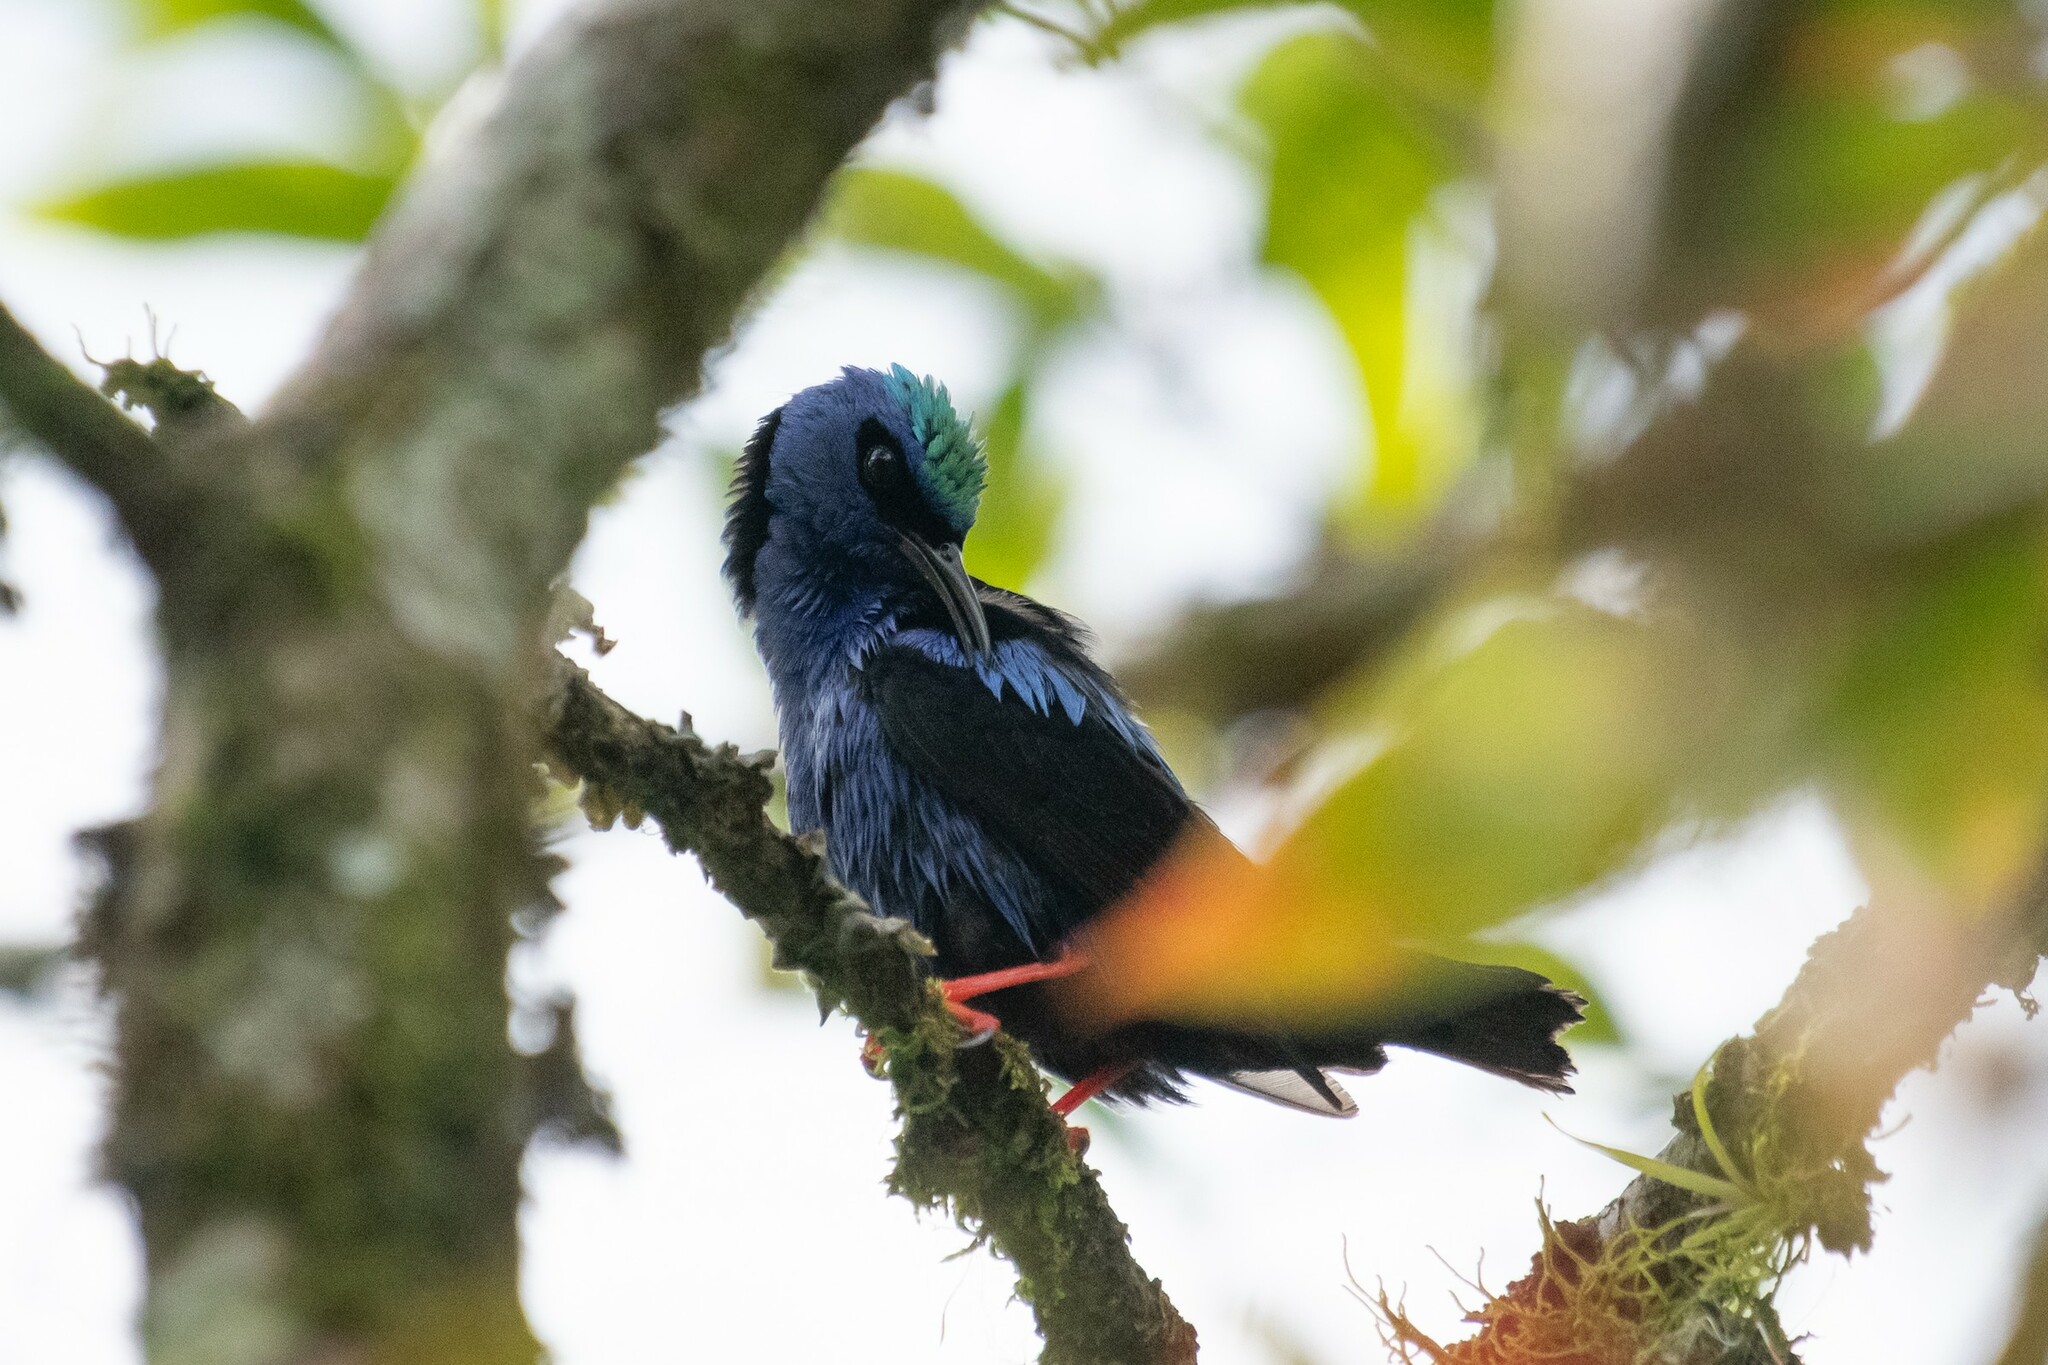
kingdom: Animalia
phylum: Chordata
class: Aves
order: Passeriformes
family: Thraupidae
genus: Cyanerpes
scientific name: Cyanerpes cyaneus
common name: Red-legged honeycreeper
